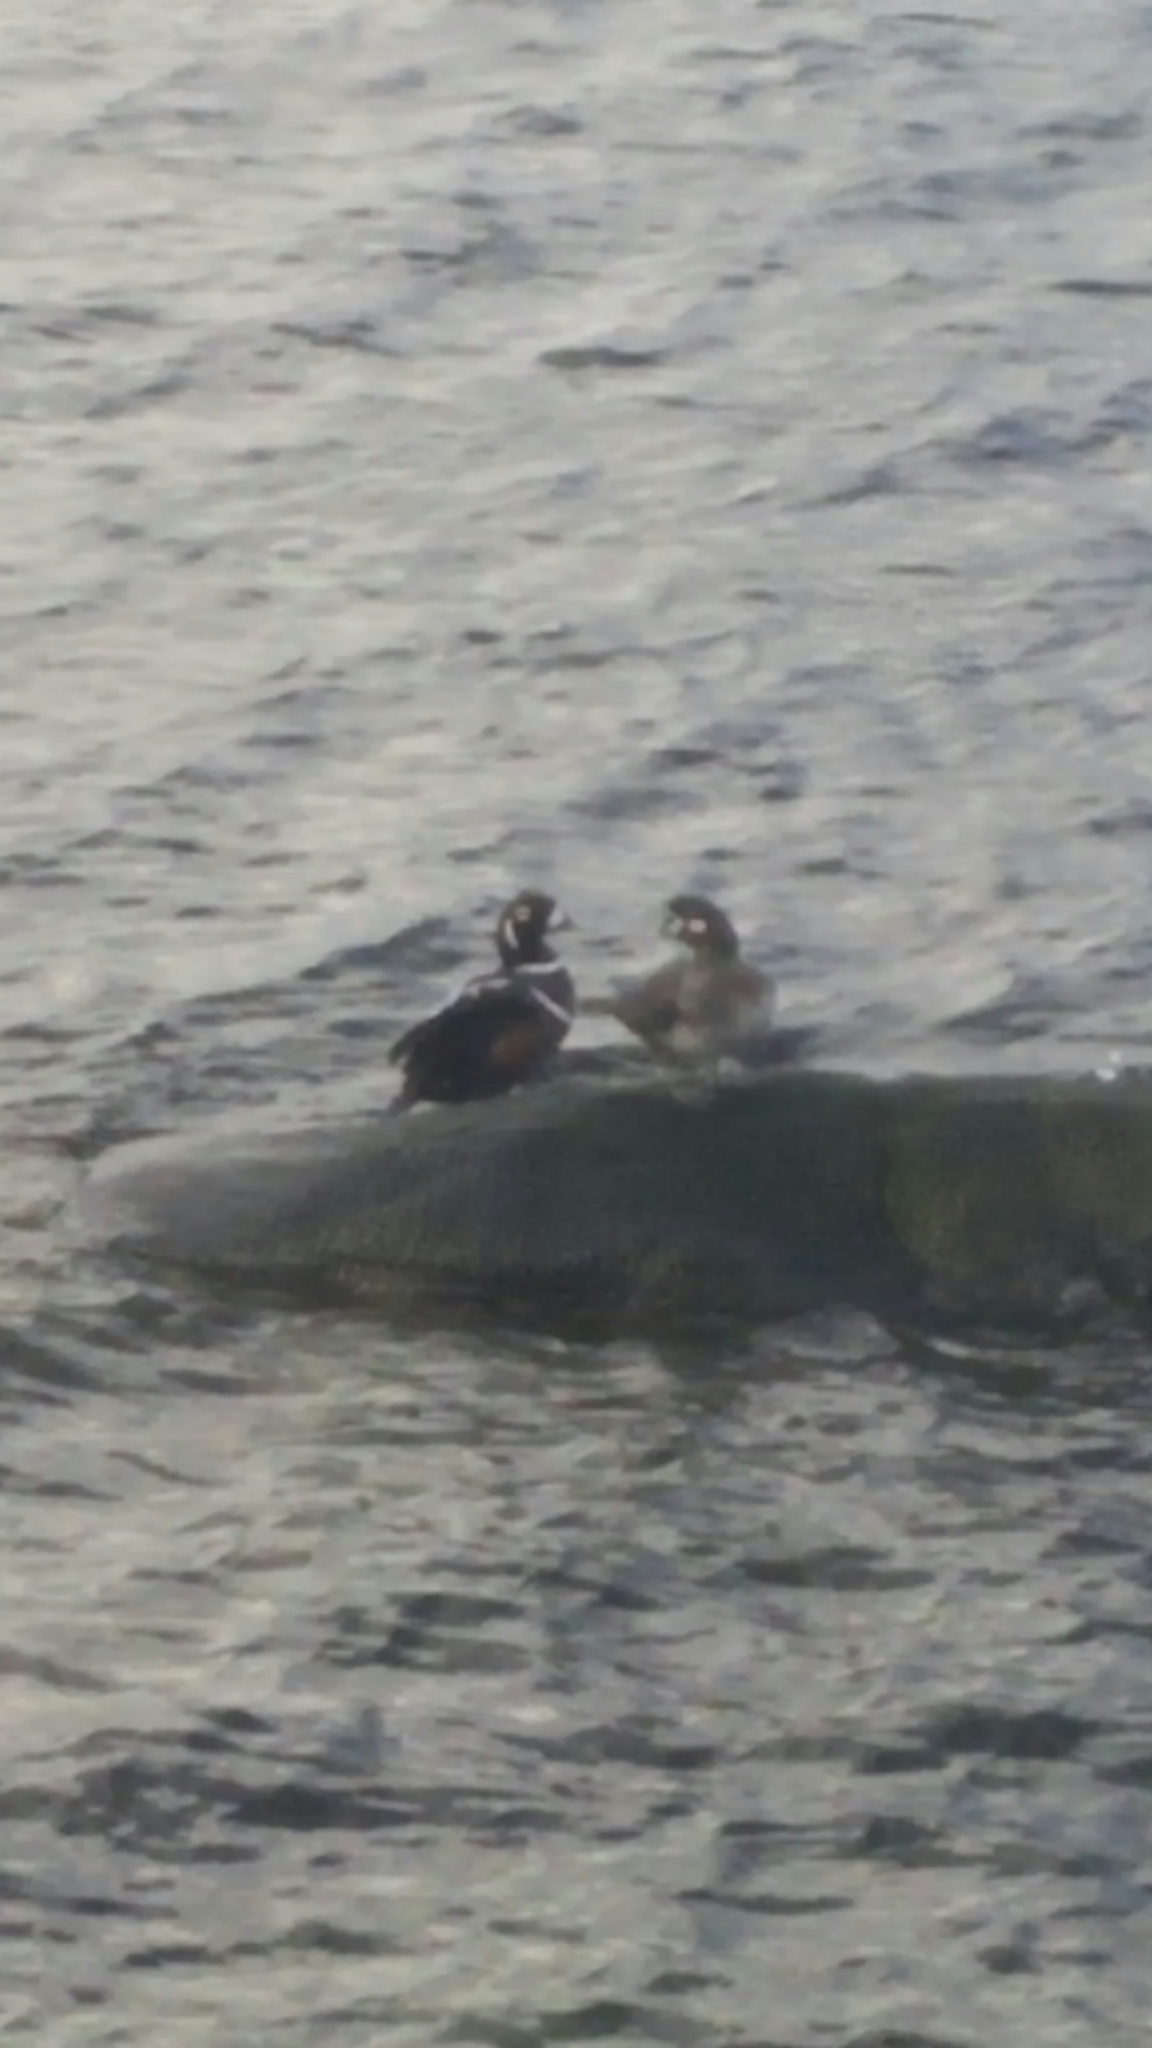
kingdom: Animalia
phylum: Chordata
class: Aves
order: Anseriformes
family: Anatidae
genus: Histrionicus
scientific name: Histrionicus histrionicus
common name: Harlequin duck
